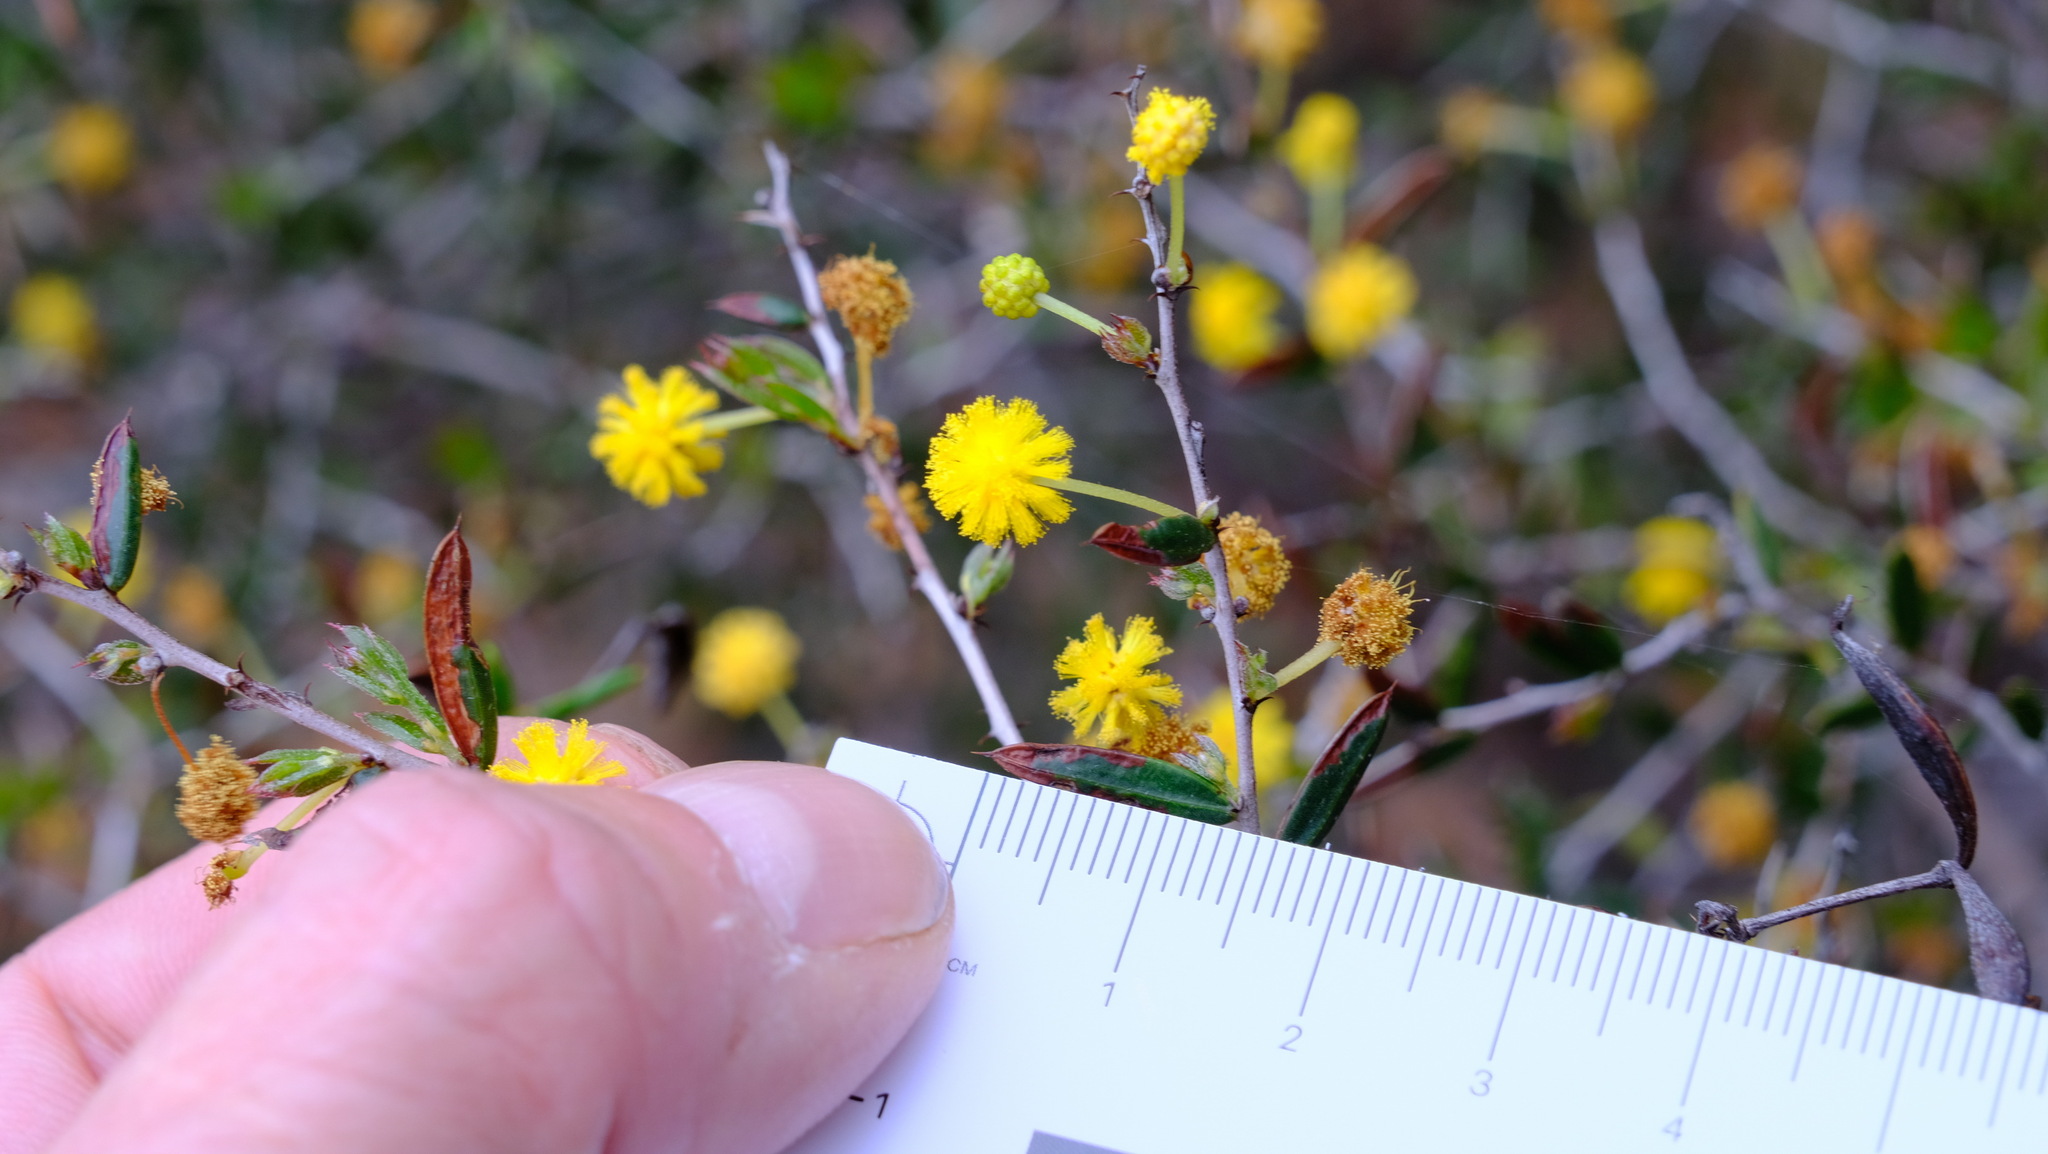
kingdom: Plantae
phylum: Tracheophyta
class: Magnoliopsida
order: Fabales
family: Fabaceae
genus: Acacia
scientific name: Acacia andrewsii
